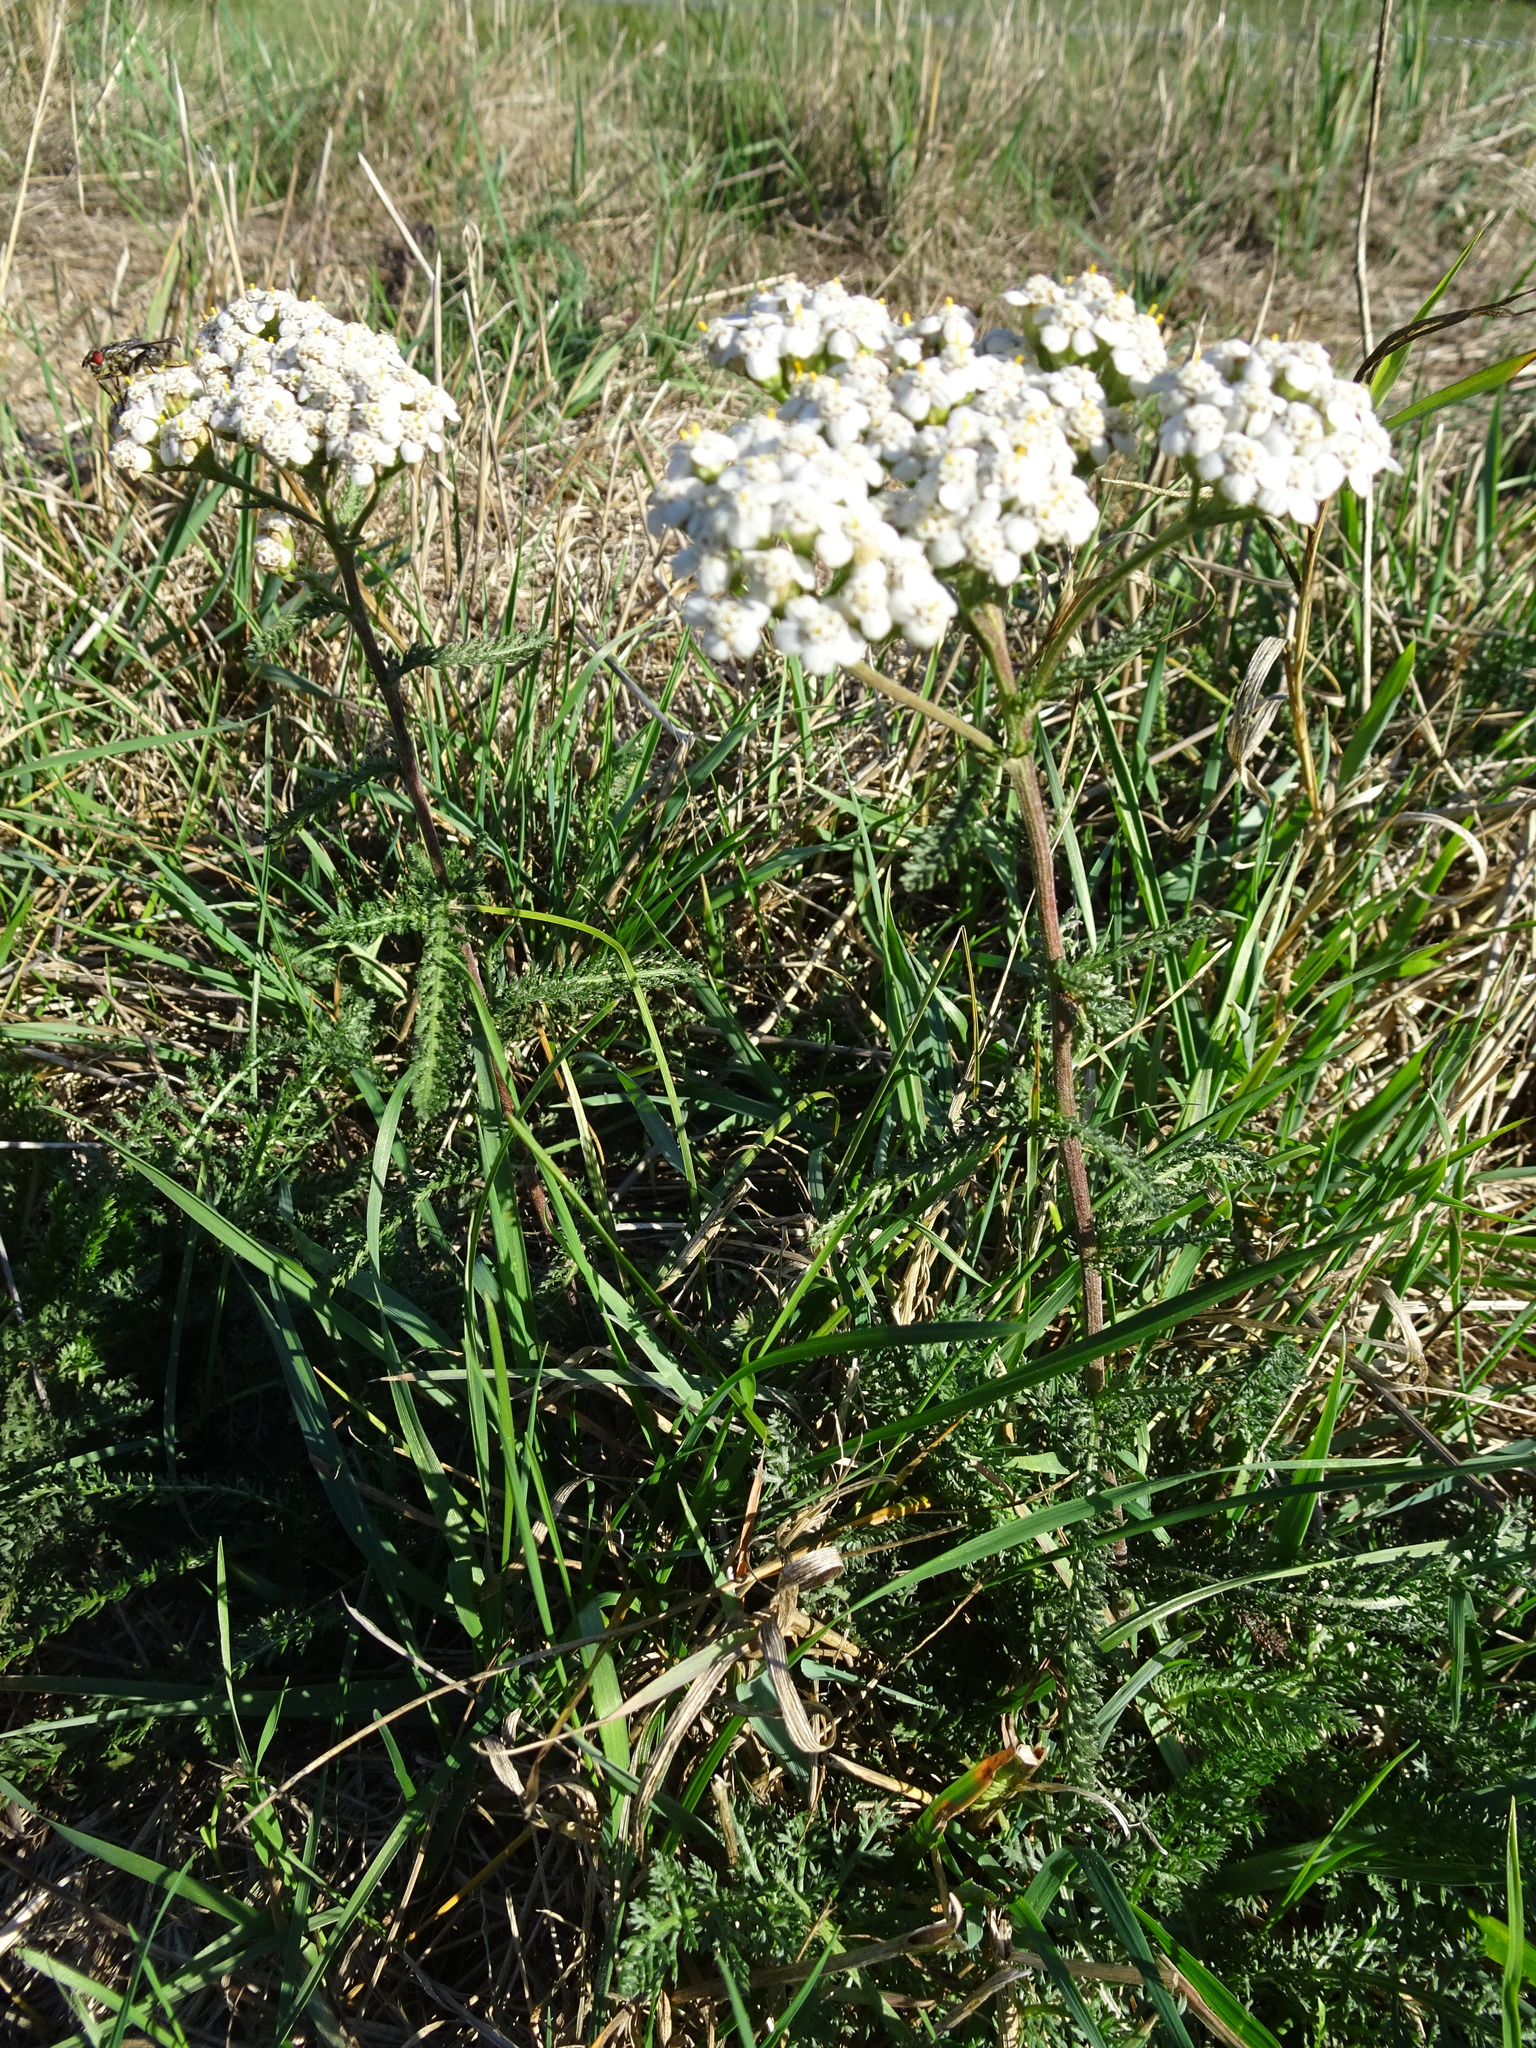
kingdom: Plantae
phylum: Tracheophyta
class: Magnoliopsida
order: Asterales
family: Asteraceae
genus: Achillea
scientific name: Achillea millefolium
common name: Yarrow
